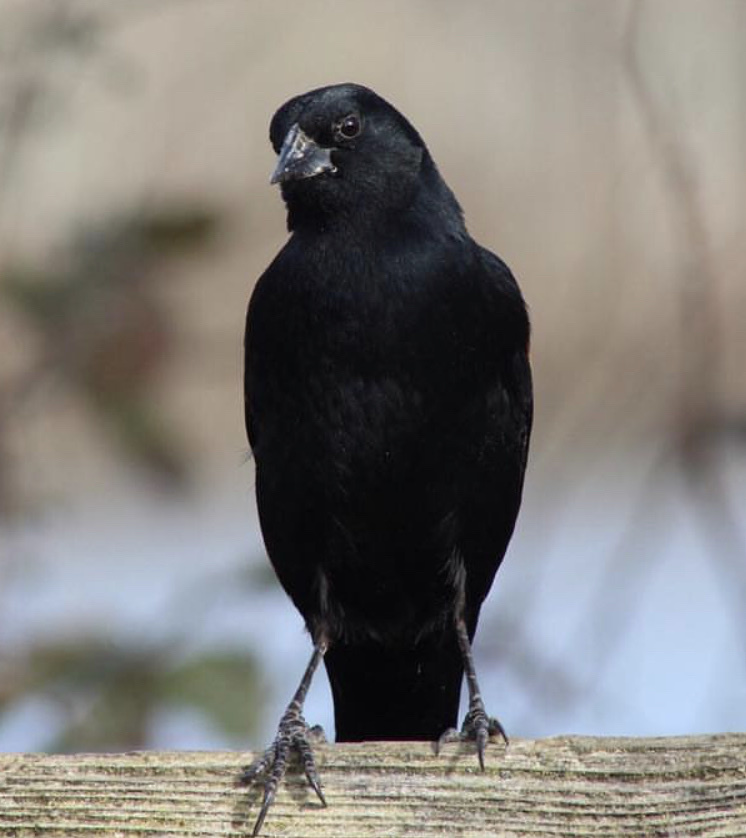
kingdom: Animalia
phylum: Chordata
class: Aves
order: Passeriformes
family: Icteridae
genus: Agelaius
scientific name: Agelaius phoeniceus
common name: Red-winged blackbird
